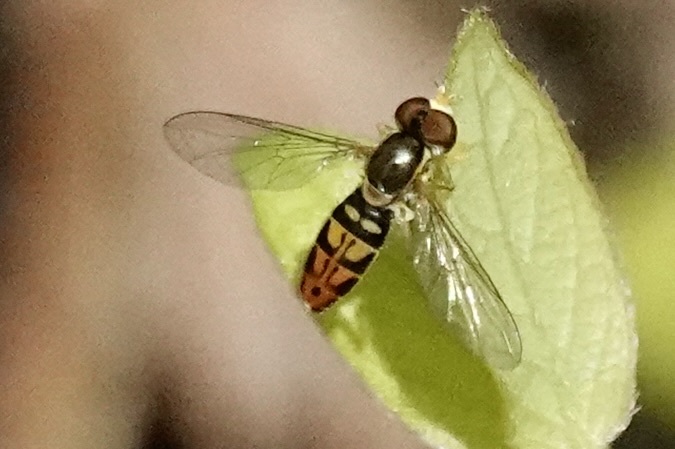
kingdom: Animalia
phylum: Arthropoda
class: Insecta
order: Diptera
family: Syrphidae
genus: Toxomerus
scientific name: Toxomerus marginatus
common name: Syrphid fly
